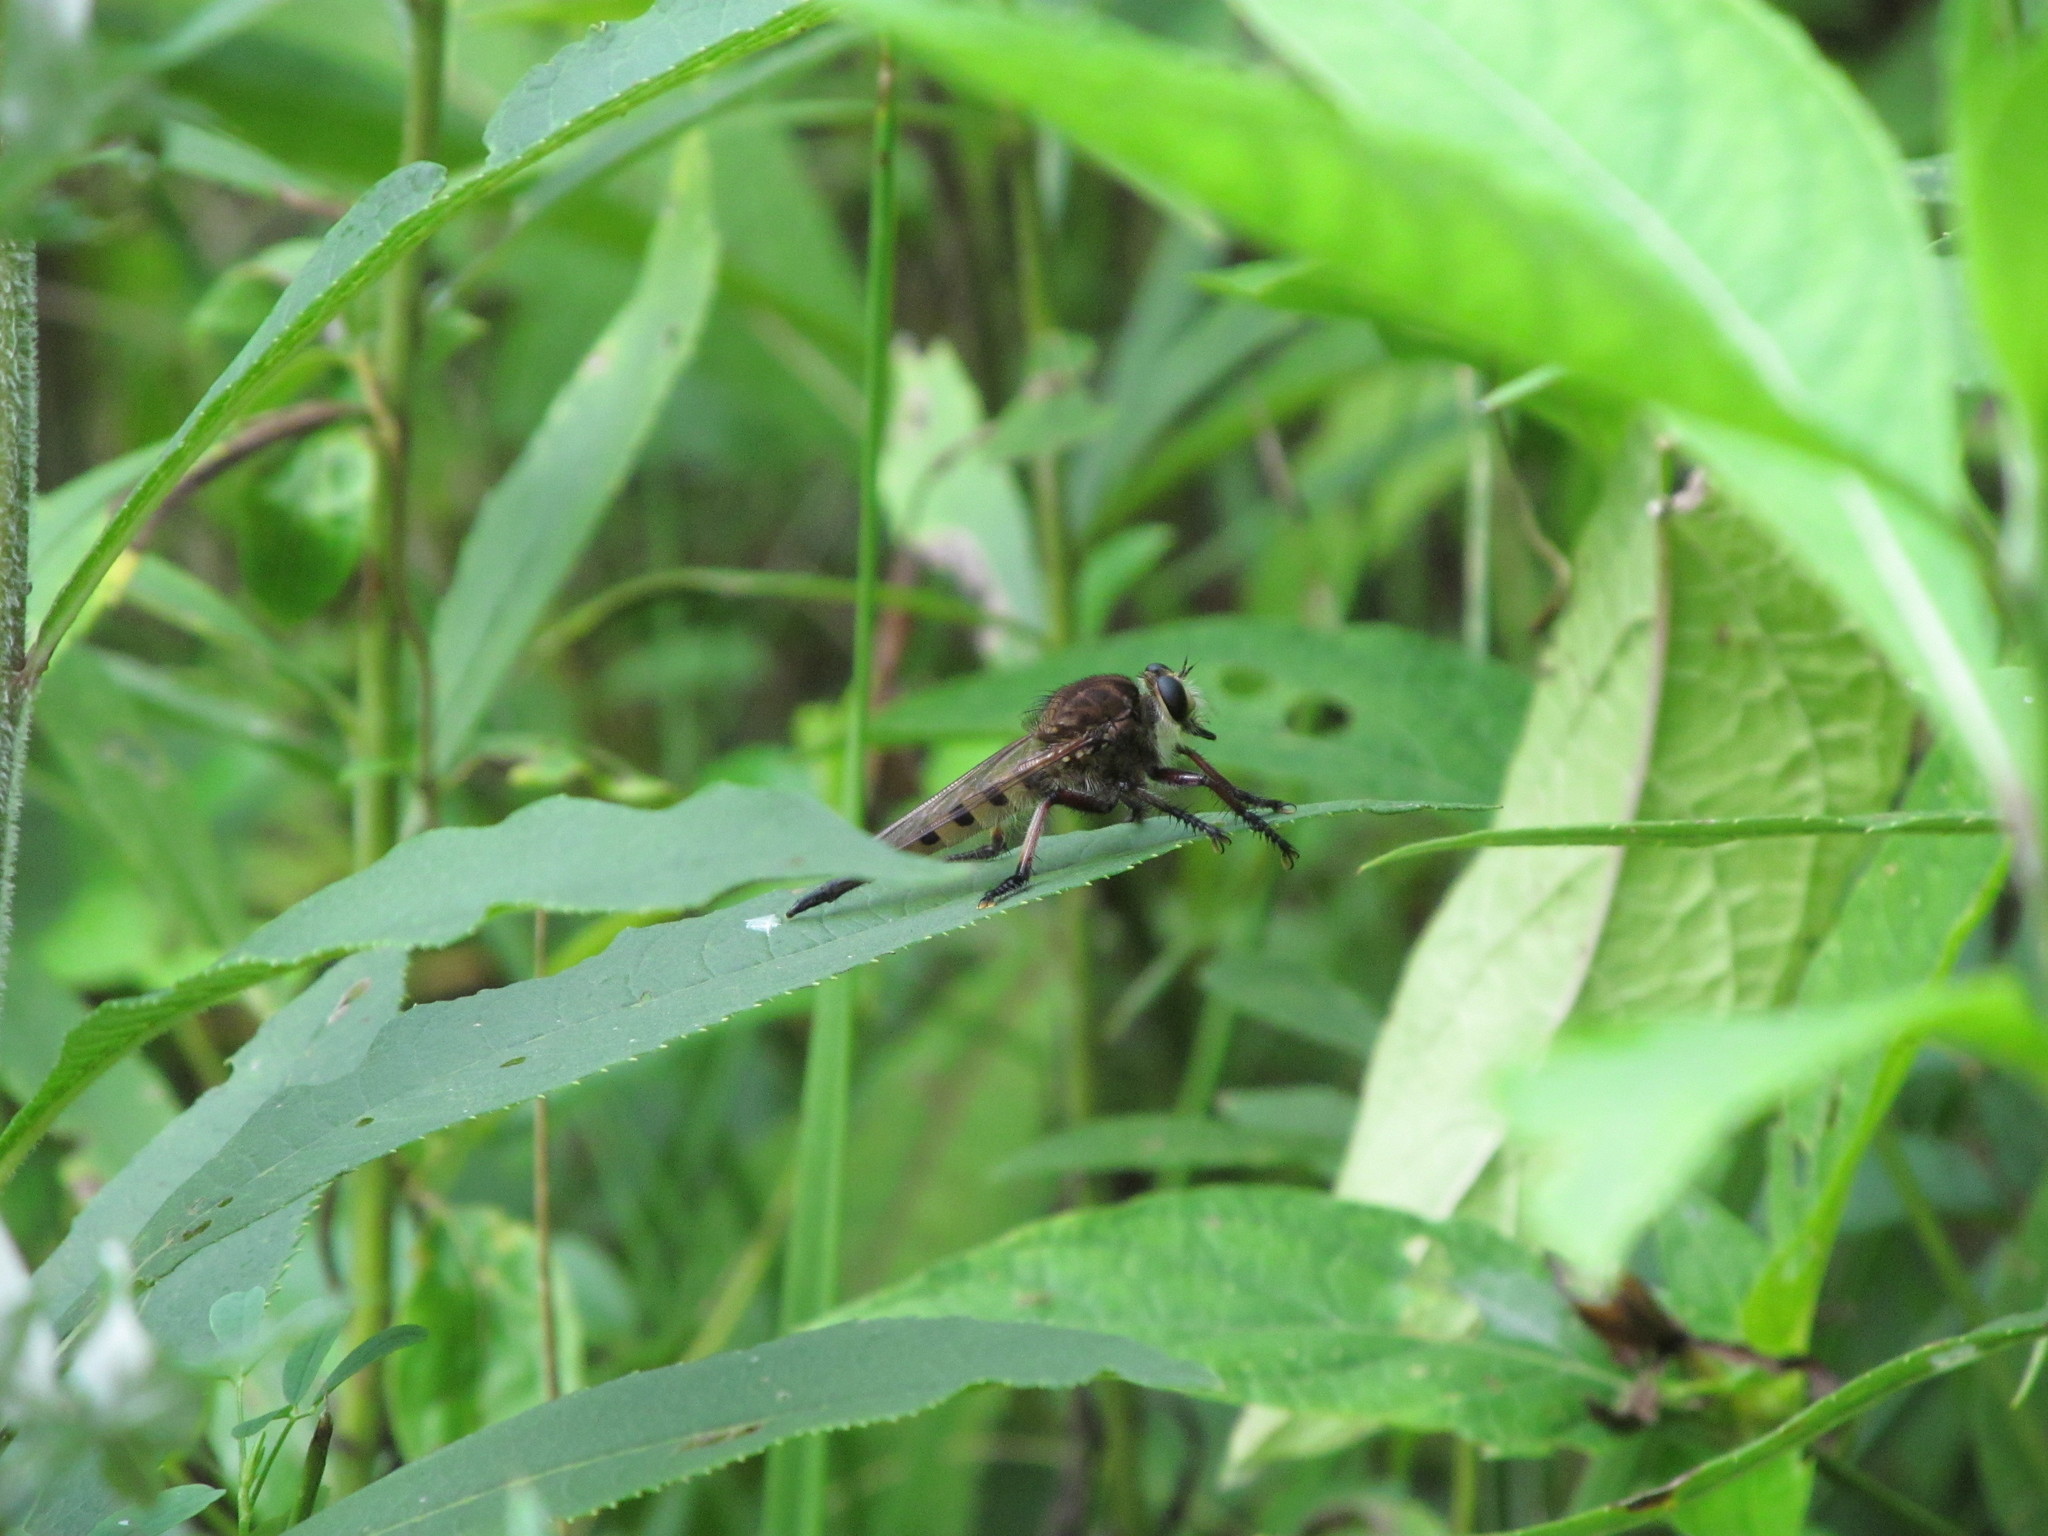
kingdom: Animalia
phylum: Arthropoda
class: Insecta
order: Diptera
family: Asilidae
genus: Promachus
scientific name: Promachus hinei
